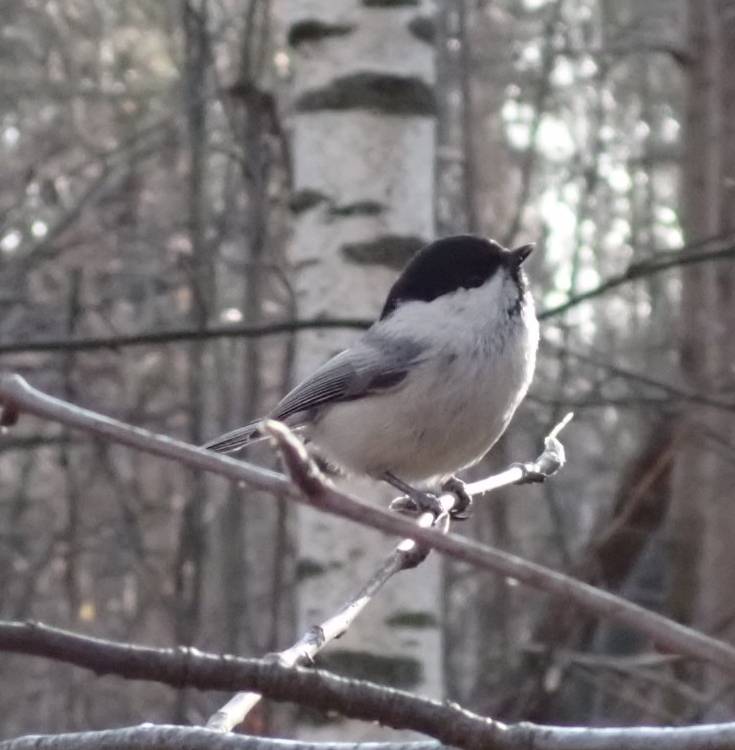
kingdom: Animalia
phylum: Chordata
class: Aves
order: Passeriformes
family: Paridae
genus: Poecile
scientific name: Poecile montanus
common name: Willow tit
